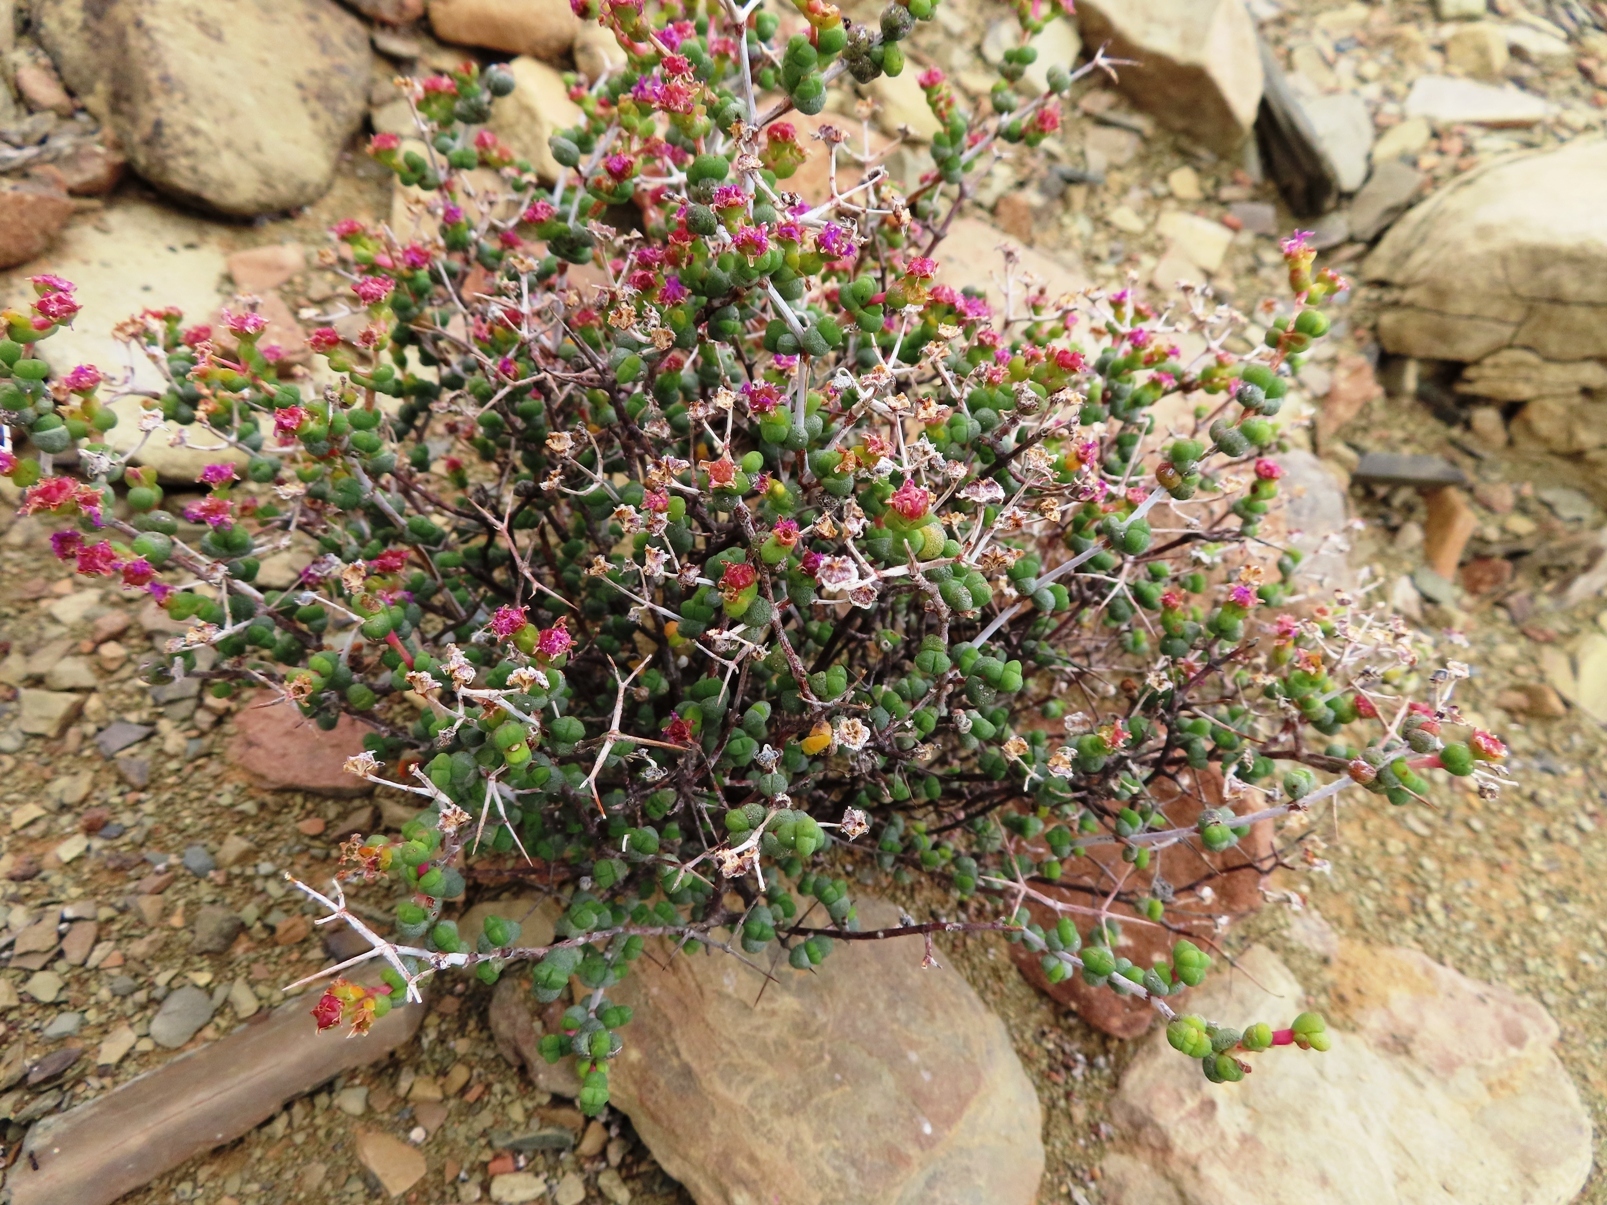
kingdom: Plantae
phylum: Tracheophyta
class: Magnoliopsida
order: Caryophyllales
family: Aizoaceae
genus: Ruschia
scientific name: Ruschia spinosa
